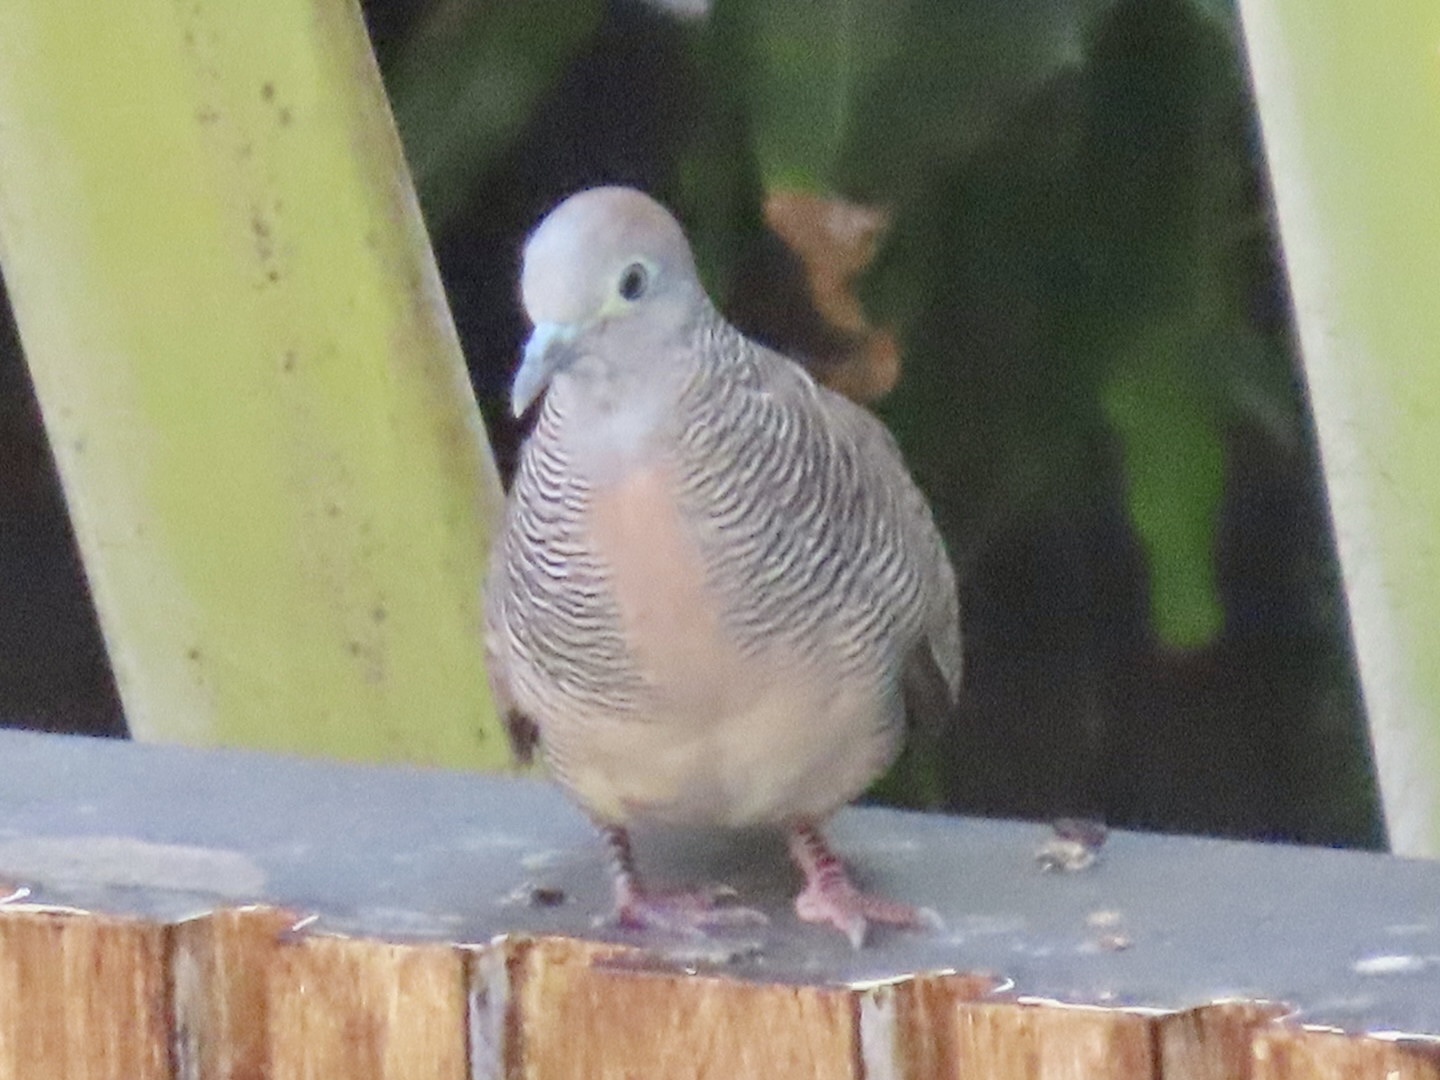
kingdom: Animalia
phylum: Chordata
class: Aves
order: Columbiformes
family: Columbidae
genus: Geopelia
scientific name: Geopelia striata
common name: Zebra dove
